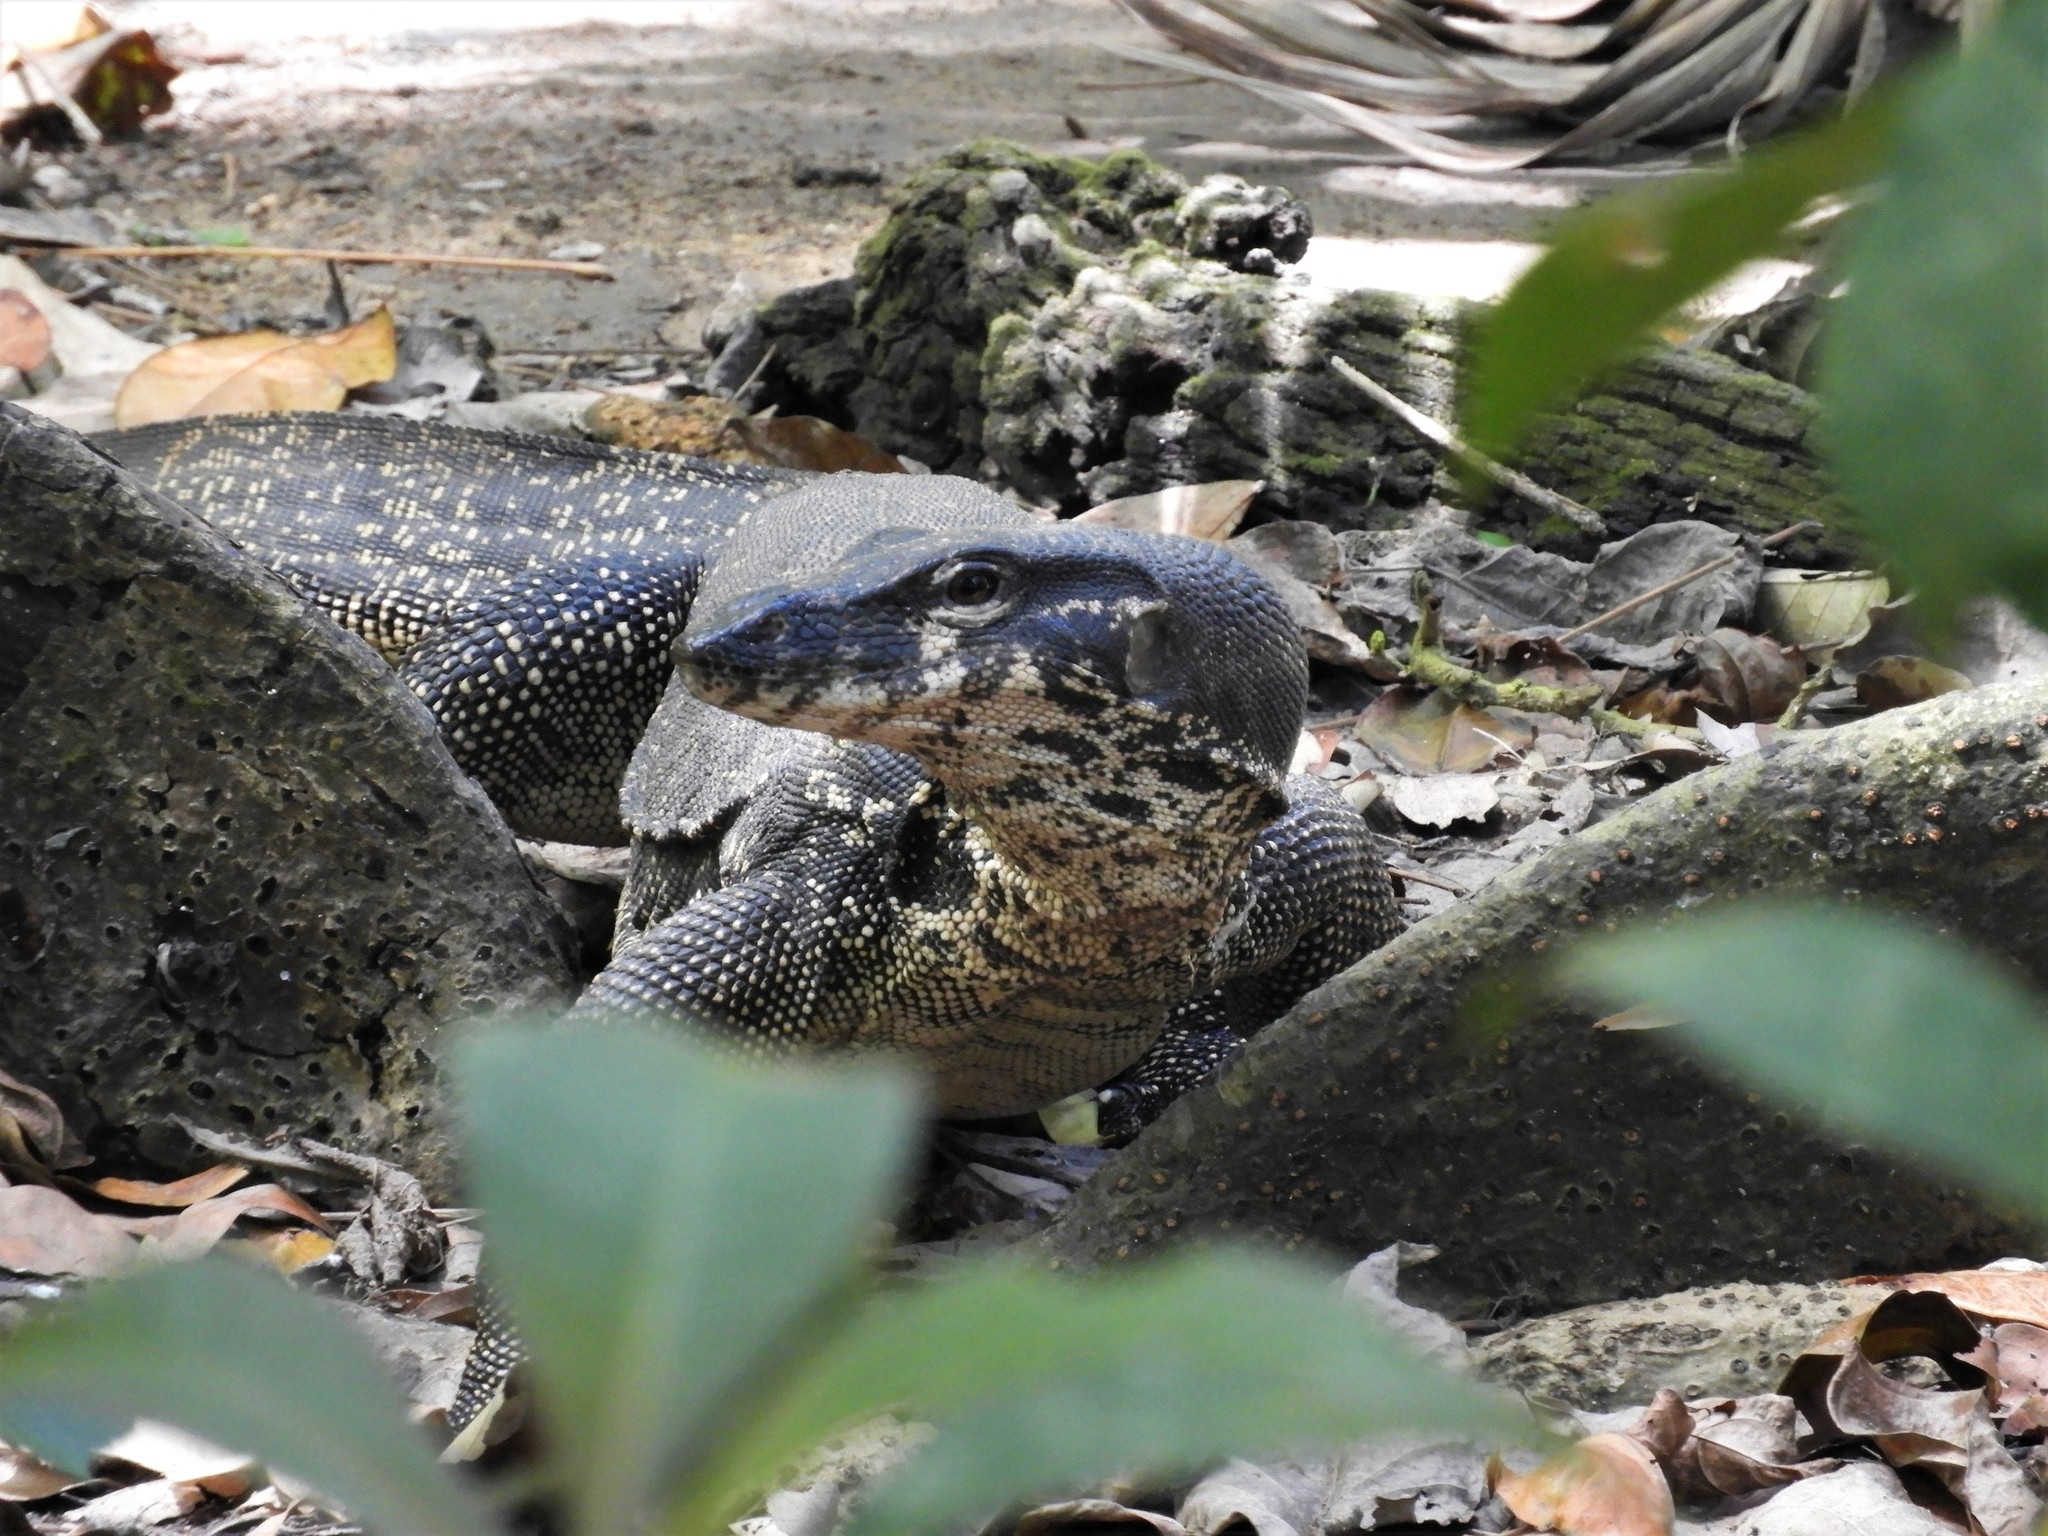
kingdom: Animalia
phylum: Chordata
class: Squamata
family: Varanidae
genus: Varanus
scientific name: Varanus palawanensis
